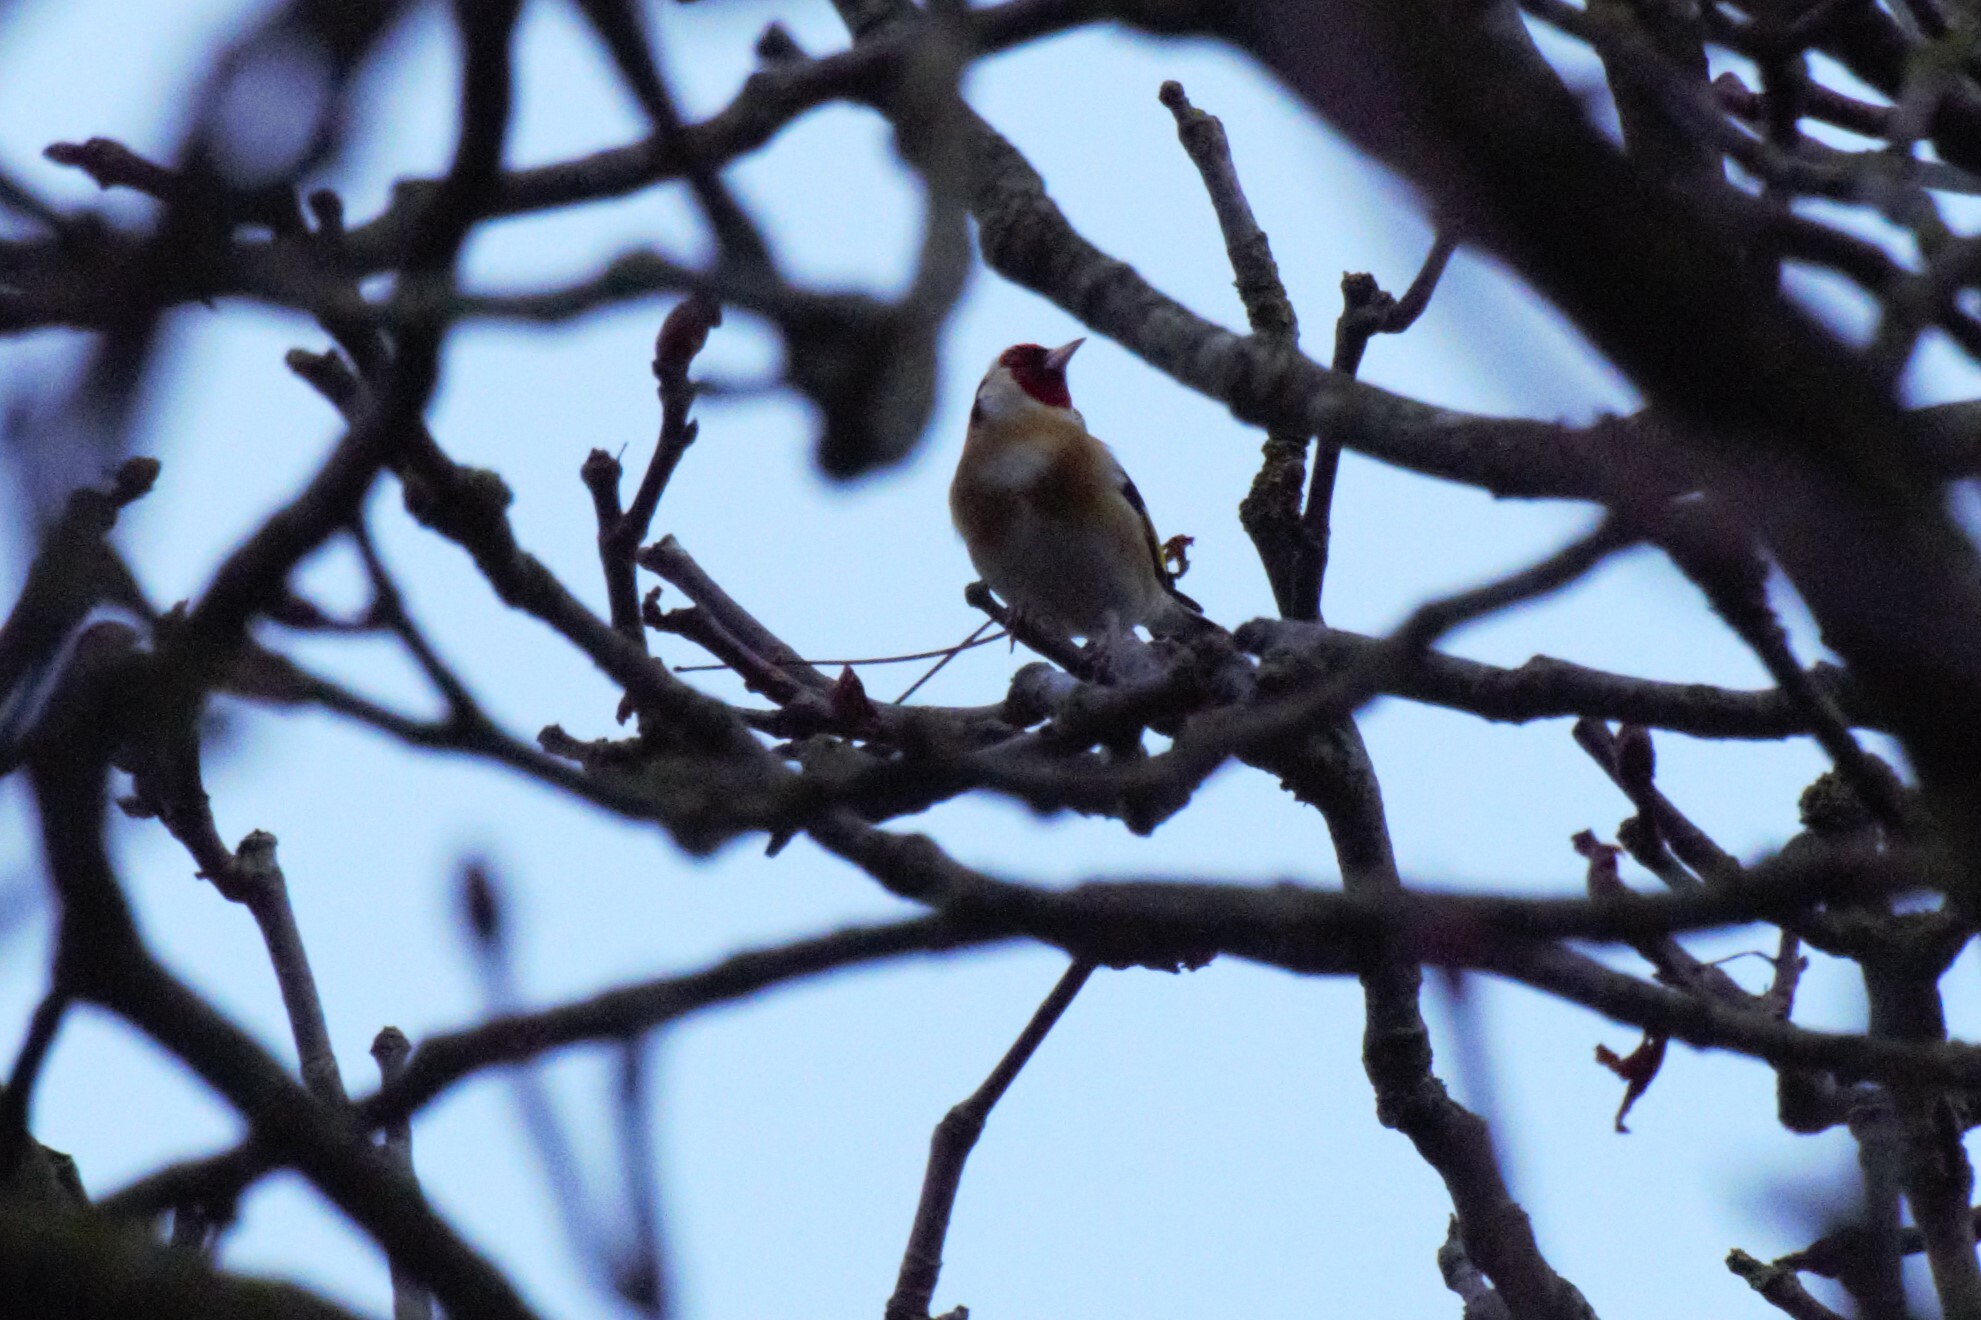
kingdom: Animalia
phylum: Chordata
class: Aves
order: Passeriformes
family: Fringillidae
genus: Carduelis
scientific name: Carduelis carduelis
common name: European goldfinch
